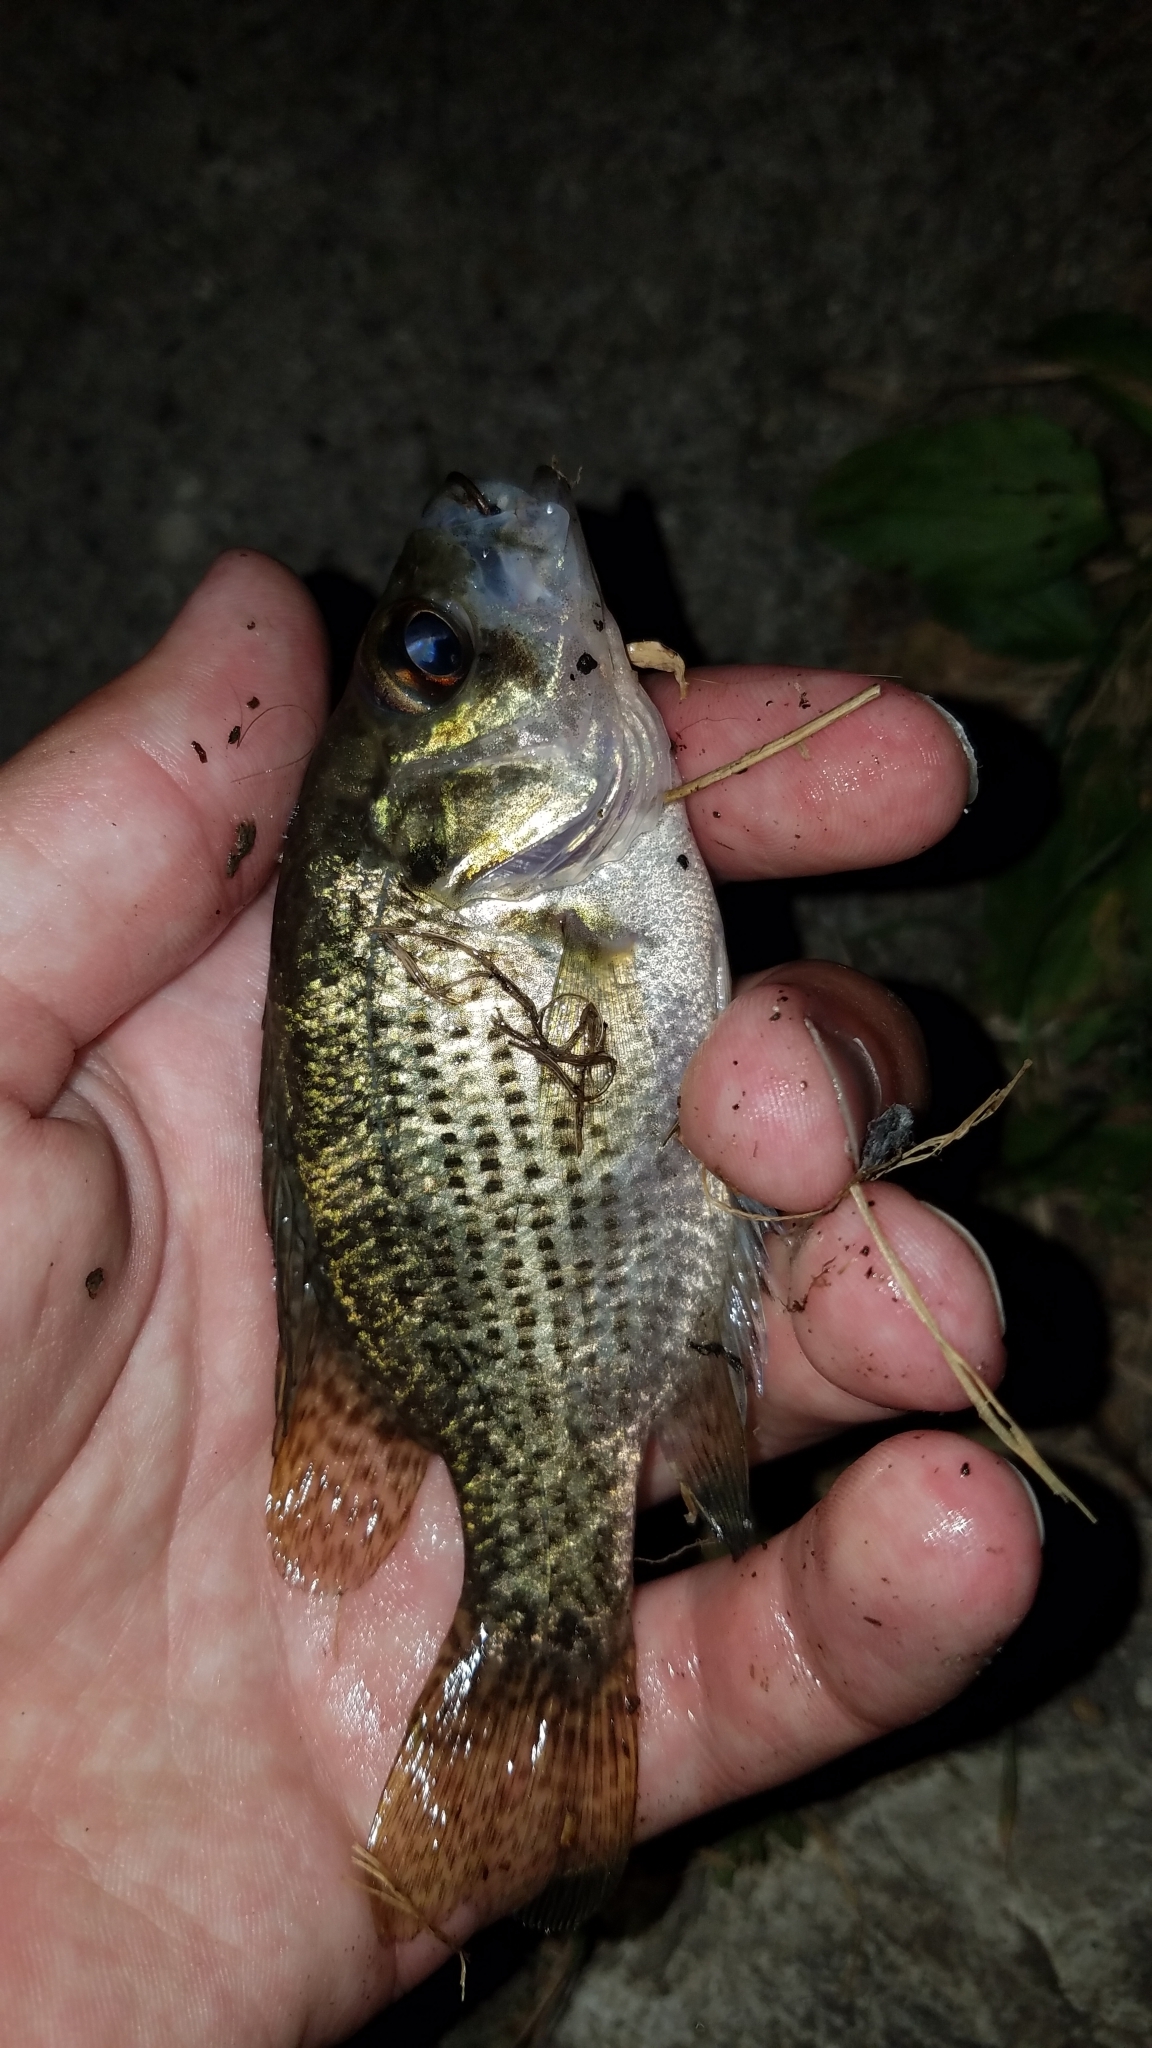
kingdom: Animalia
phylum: Chordata
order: Perciformes
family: Centrarchidae
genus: Ambloplites
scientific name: Ambloplites rupestris
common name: Rock bass
